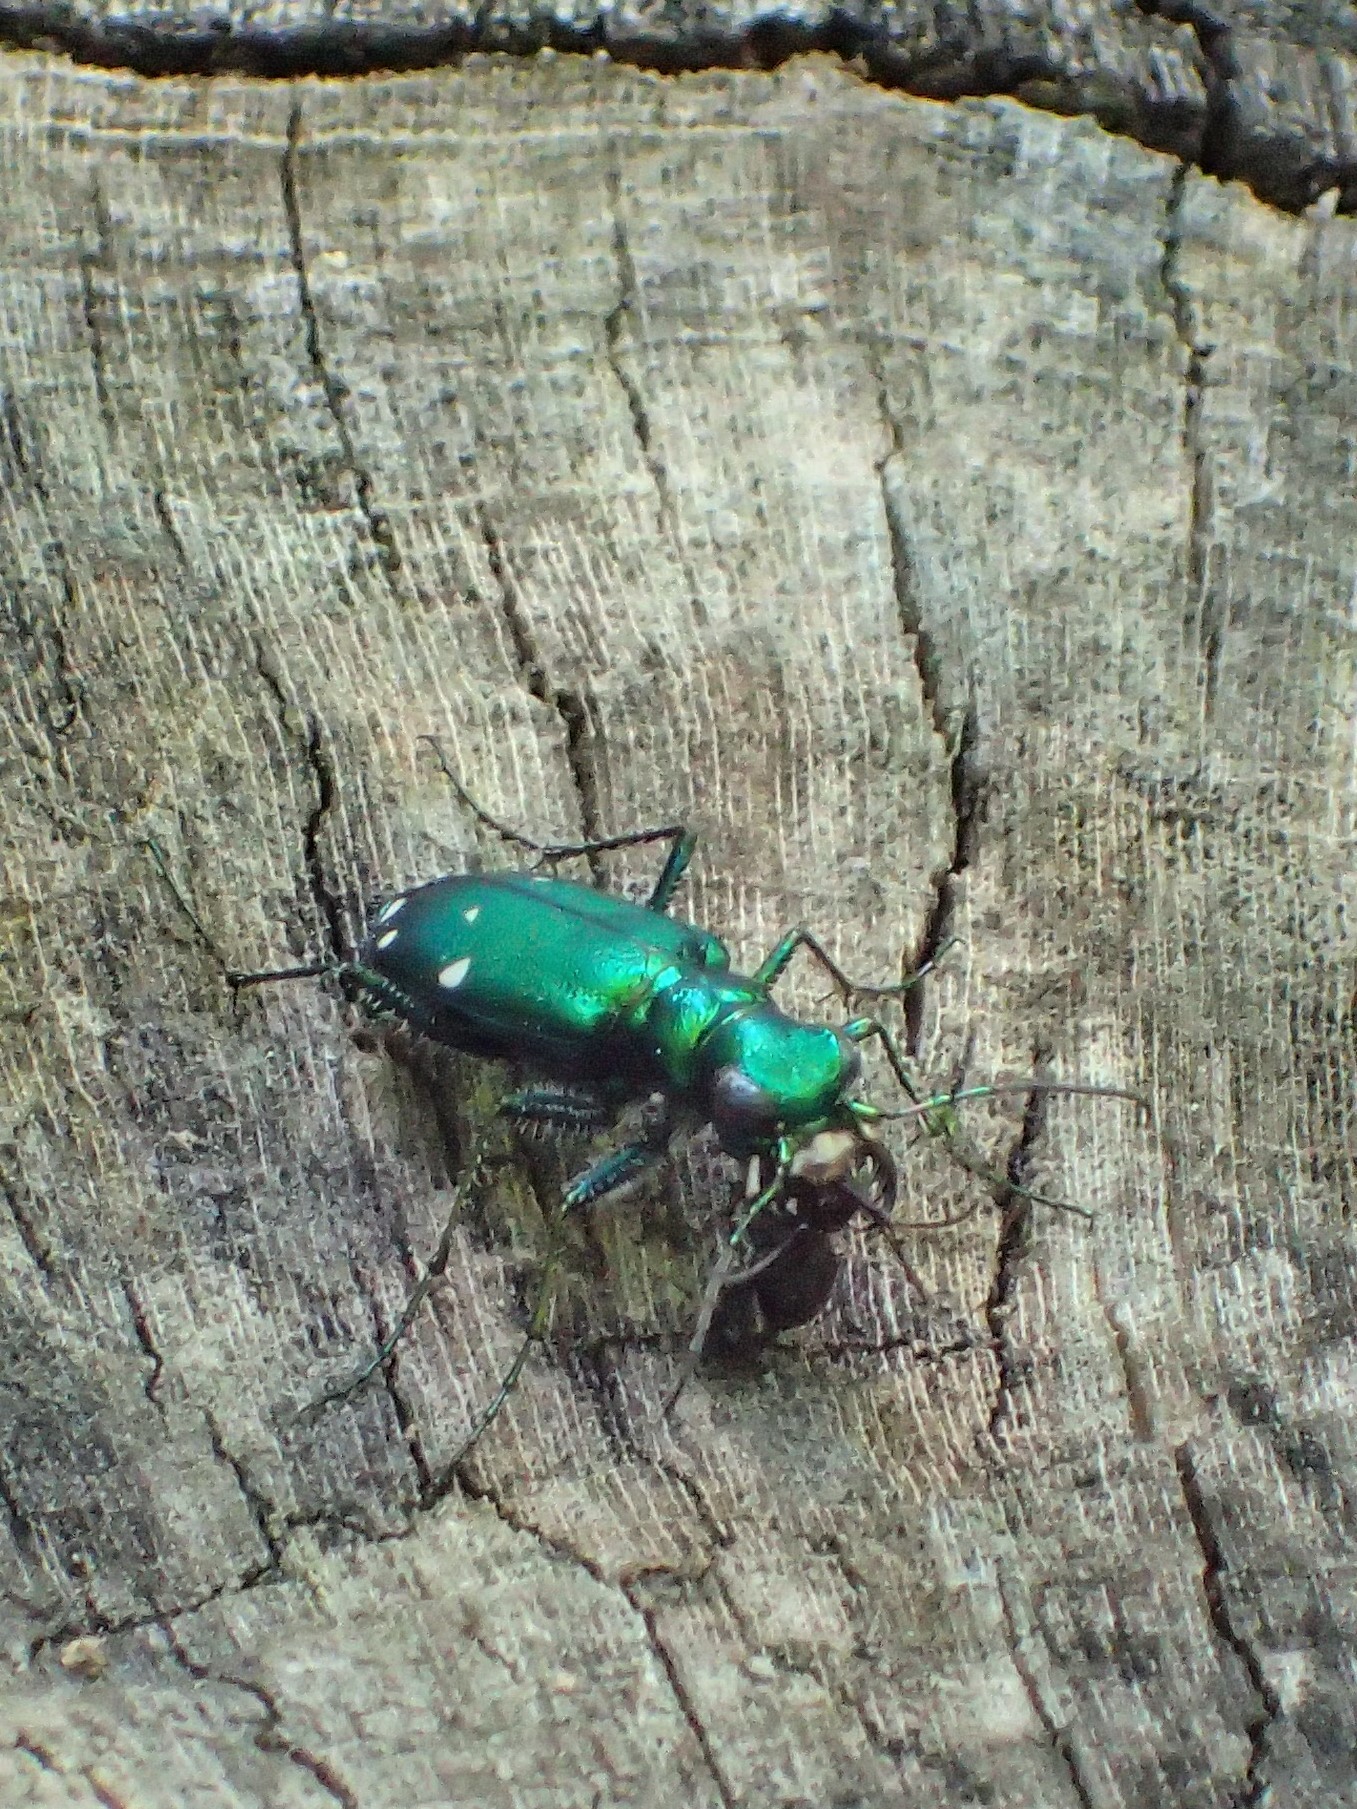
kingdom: Animalia
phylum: Arthropoda
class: Insecta
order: Coleoptera
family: Carabidae
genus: Cicindela
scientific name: Cicindela sexguttata
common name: Six-spotted tiger beetle
